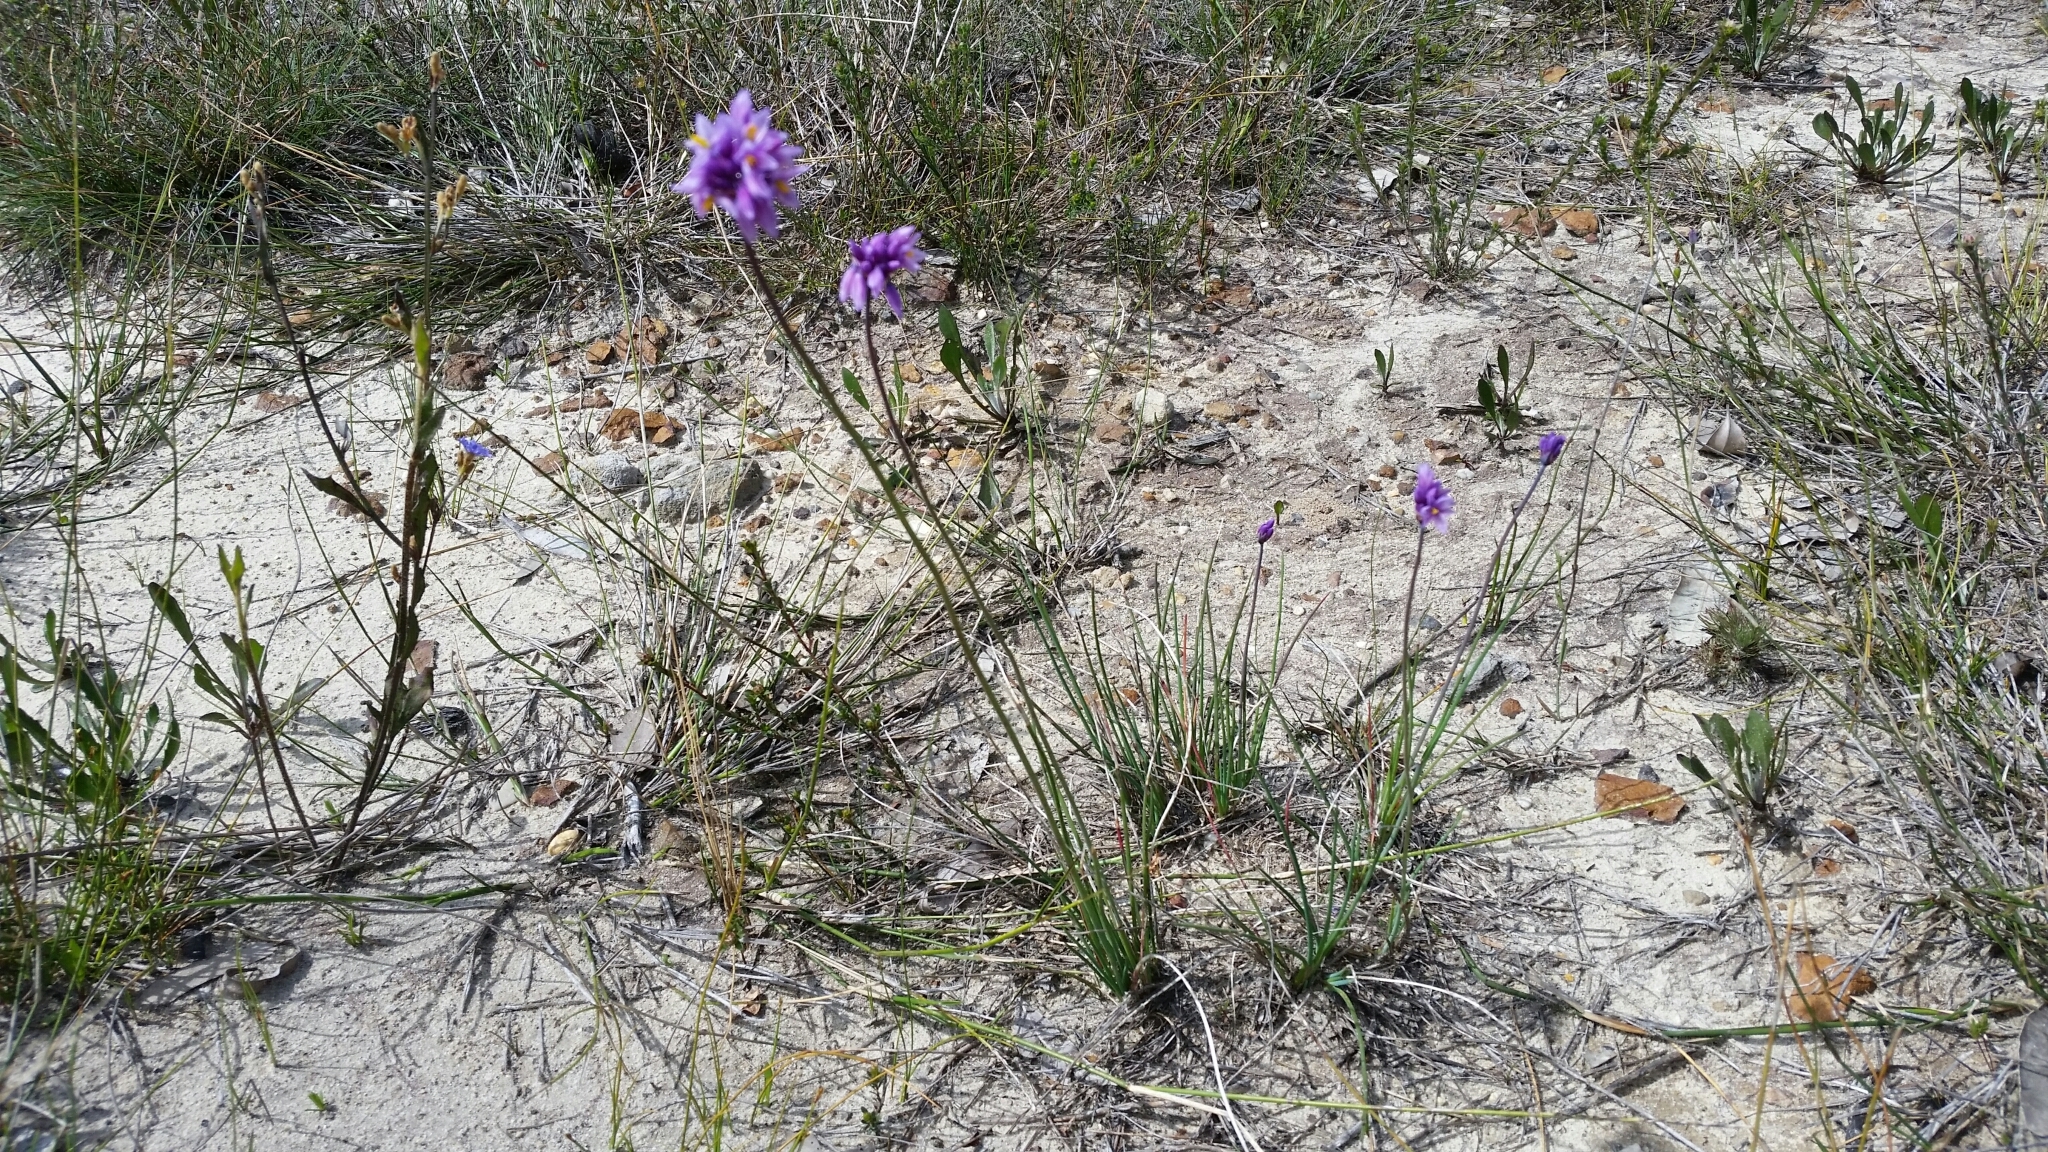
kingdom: Plantae
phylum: Tracheophyta
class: Liliopsida
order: Asparagales
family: Asparagaceae
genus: Sowerbaea
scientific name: Sowerbaea juncea
